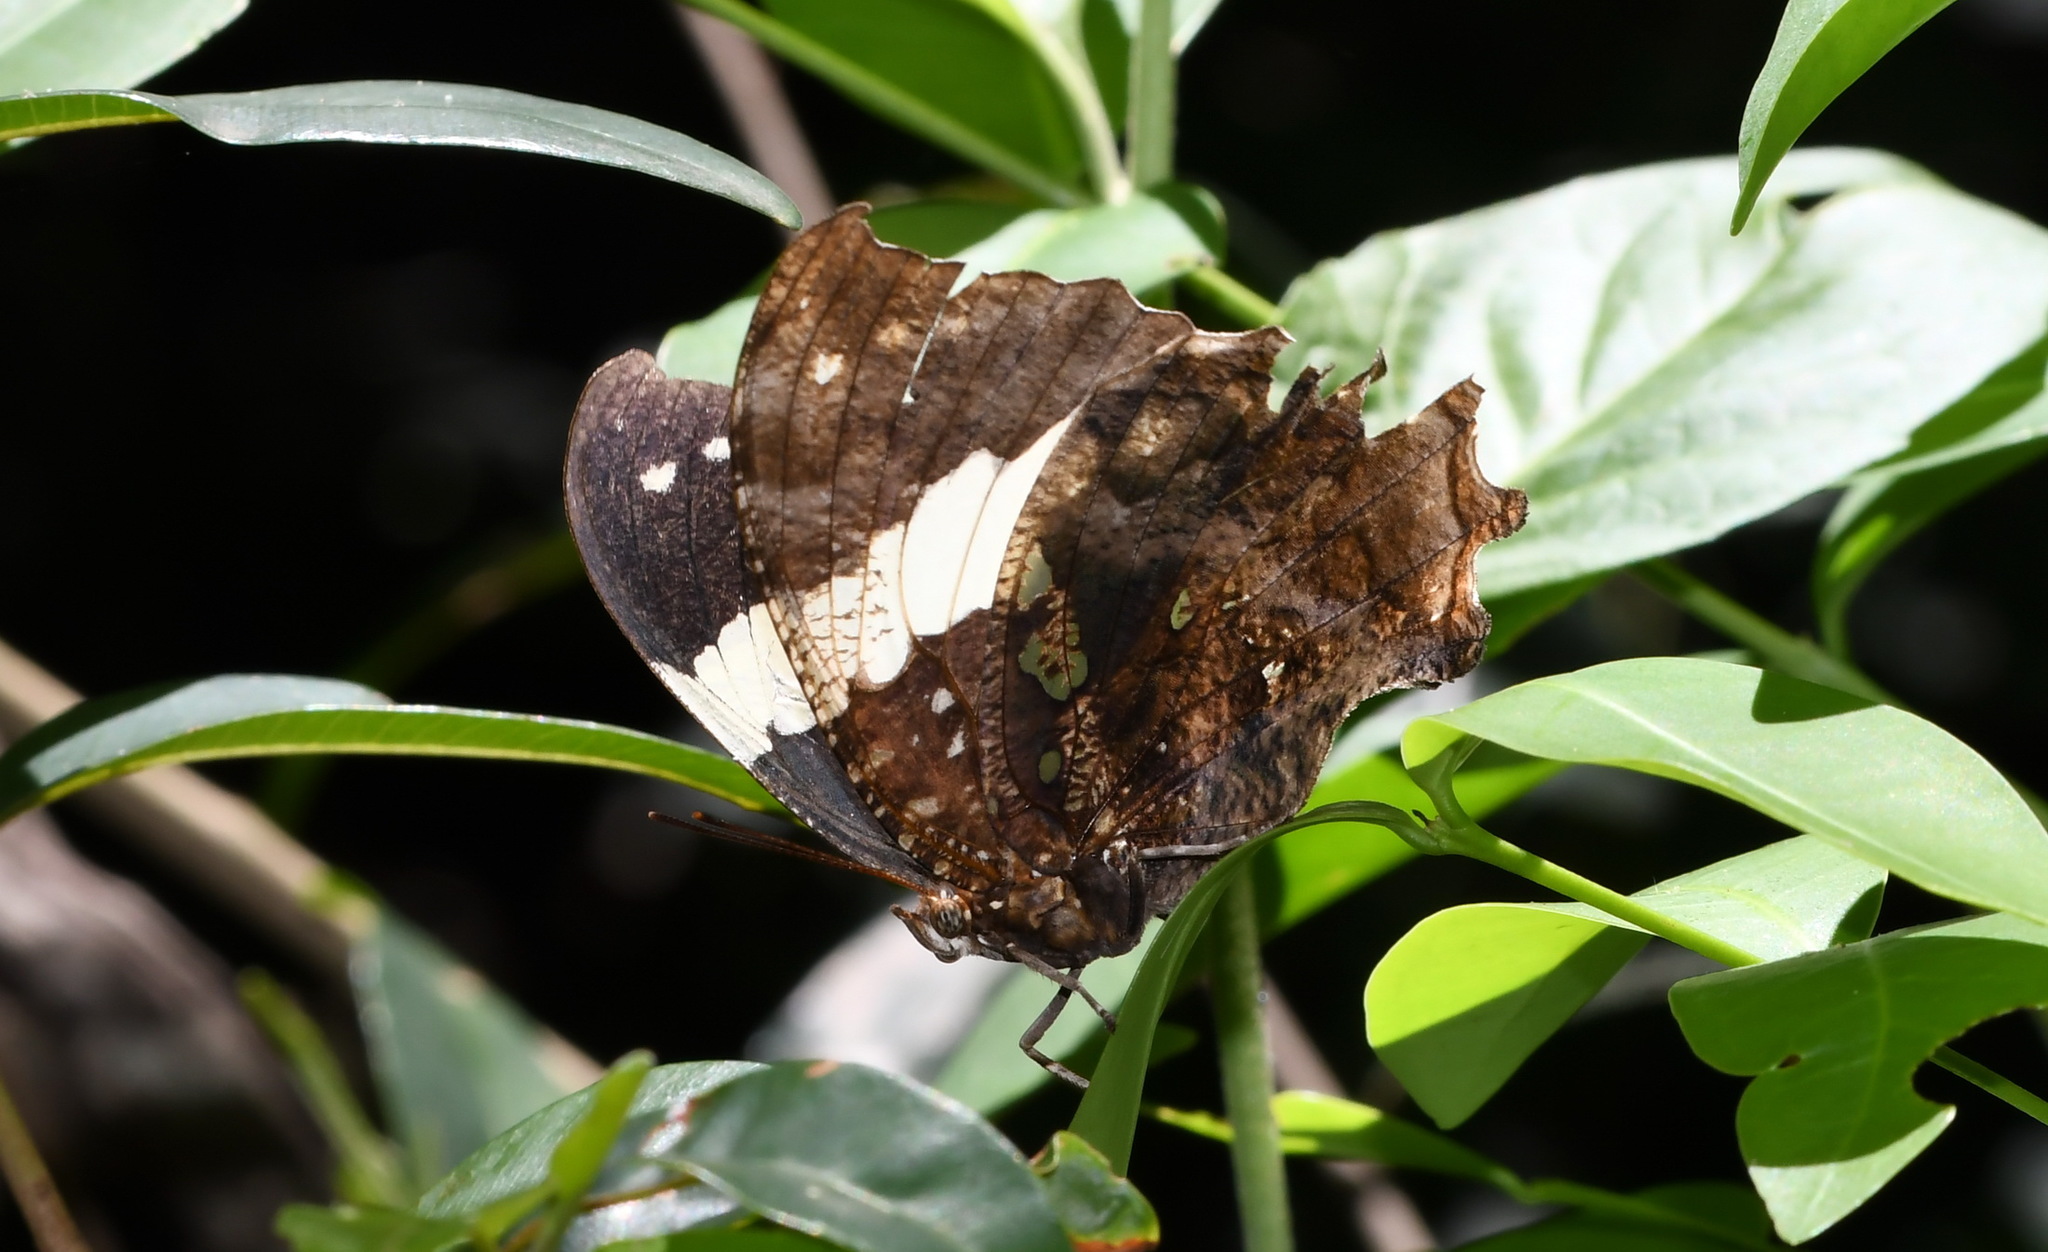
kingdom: Animalia
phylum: Arthropoda
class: Insecta
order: Lepidoptera
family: Nymphalidae
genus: Hypna
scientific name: Hypna clytemnestra
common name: Silver-studded leafwing
